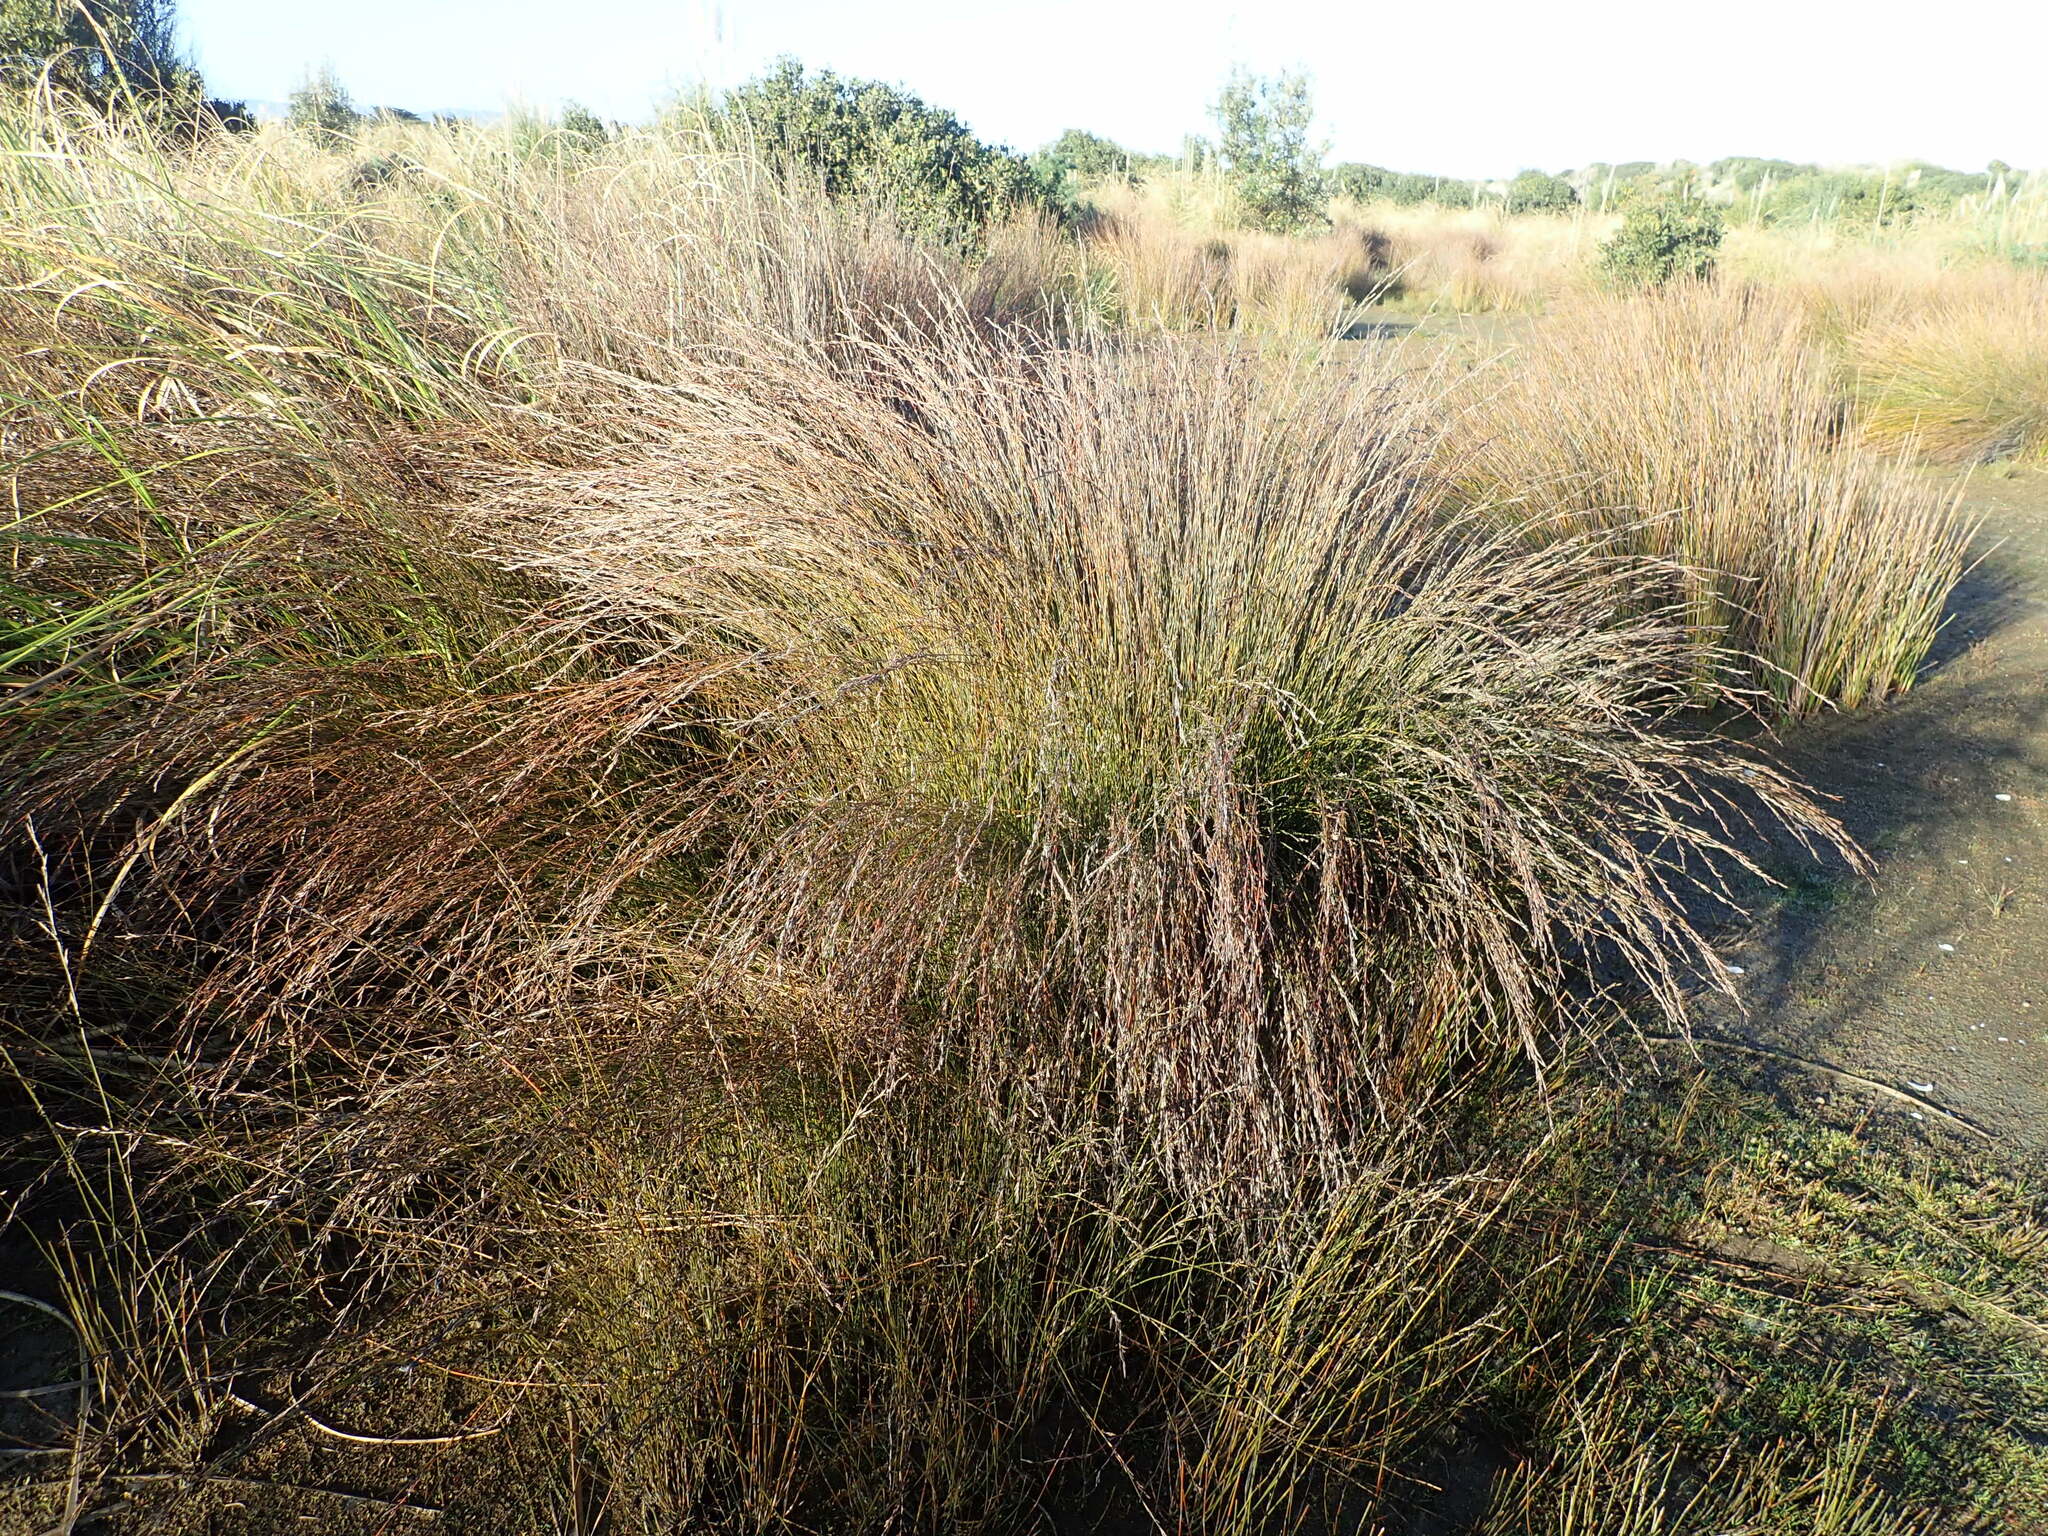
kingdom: Plantae
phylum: Tracheophyta
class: Liliopsida
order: Poales
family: Restionaceae
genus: Apodasmia
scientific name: Apodasmia similis
